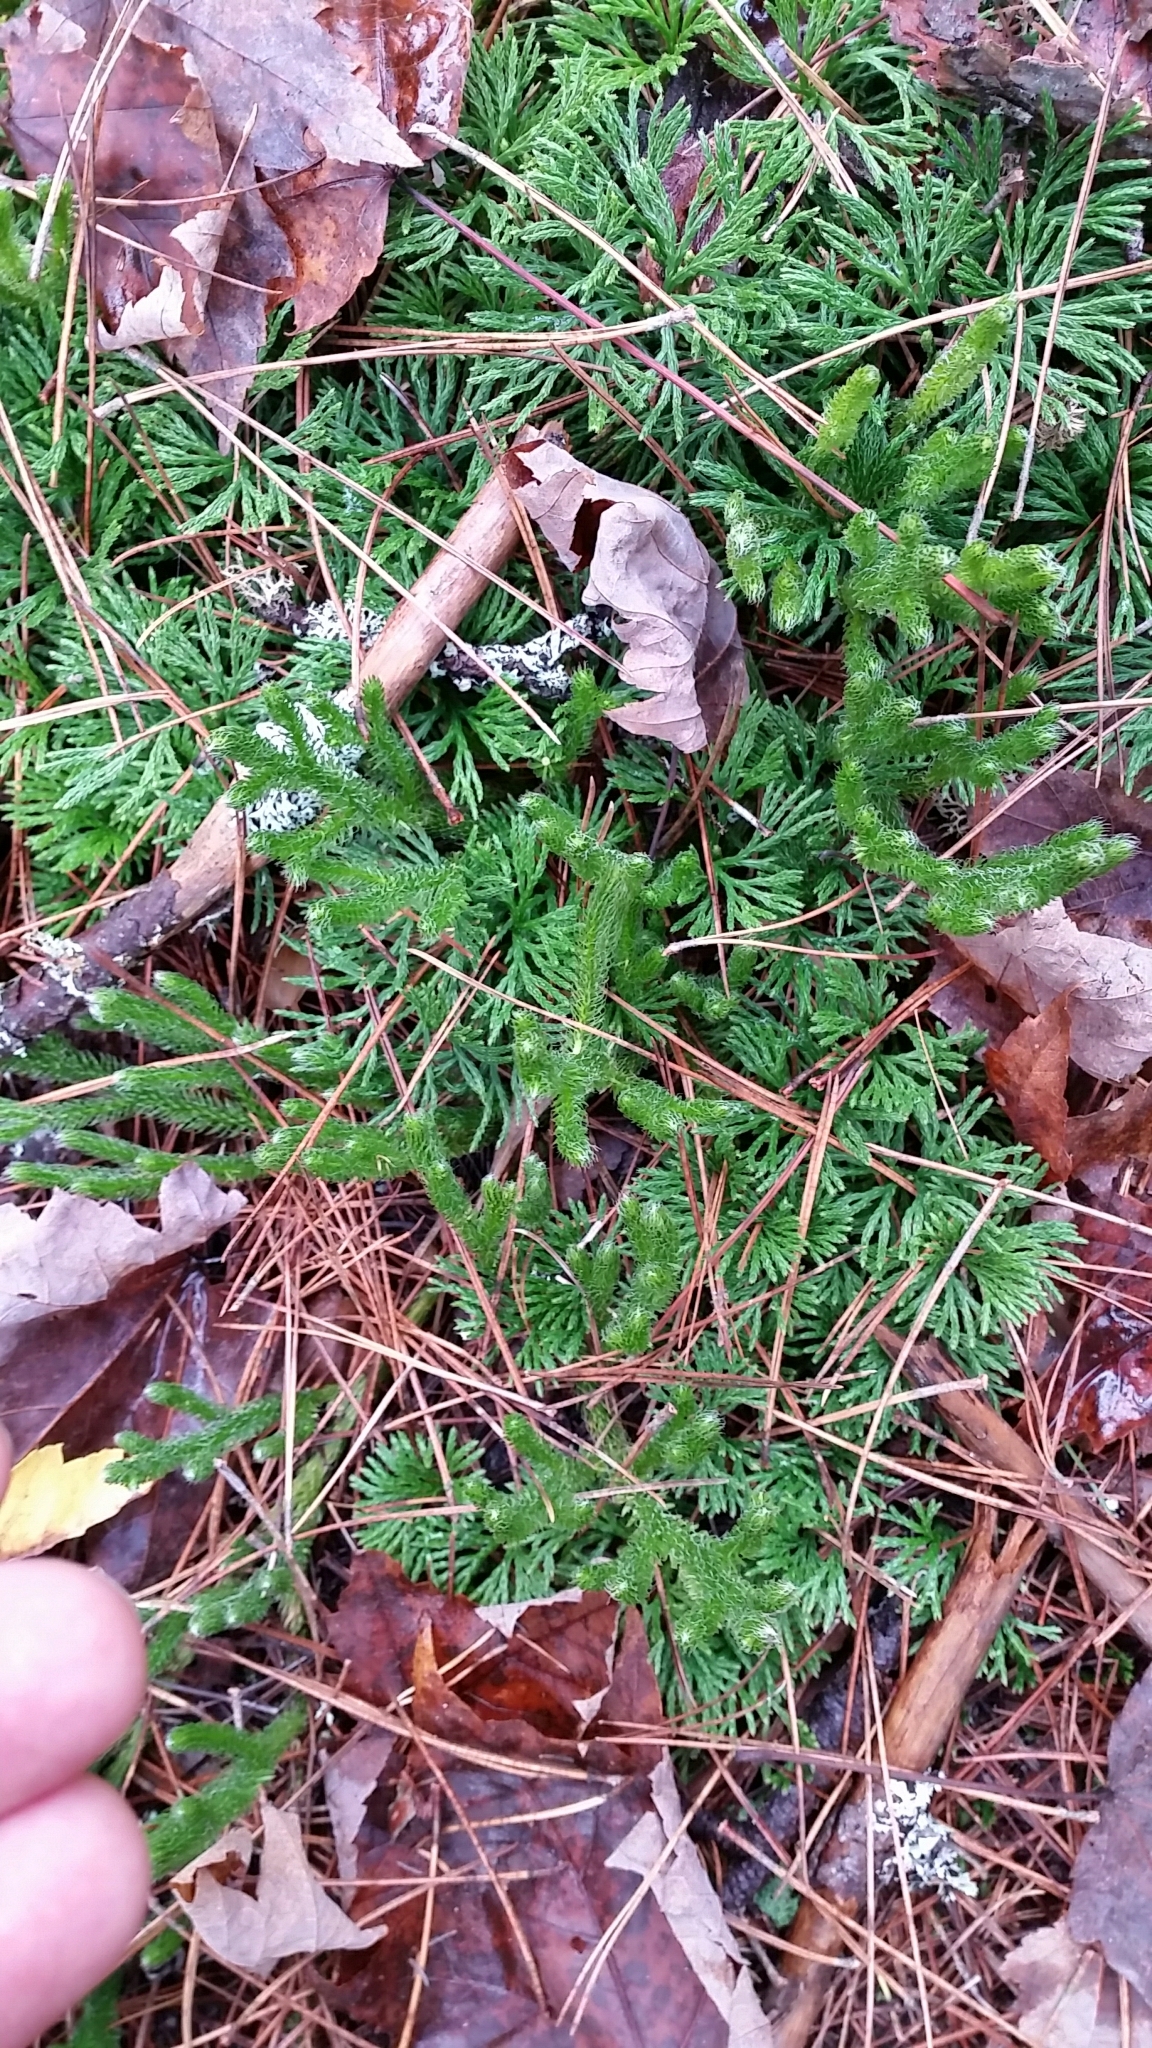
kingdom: Plantae
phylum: Tracheophyta
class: Lycopodiopsida
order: Lycopodiales
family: Lycopodiaceae
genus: Lycopodium
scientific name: Lycopodium clavatum
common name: Stag's-horn clubmoss
